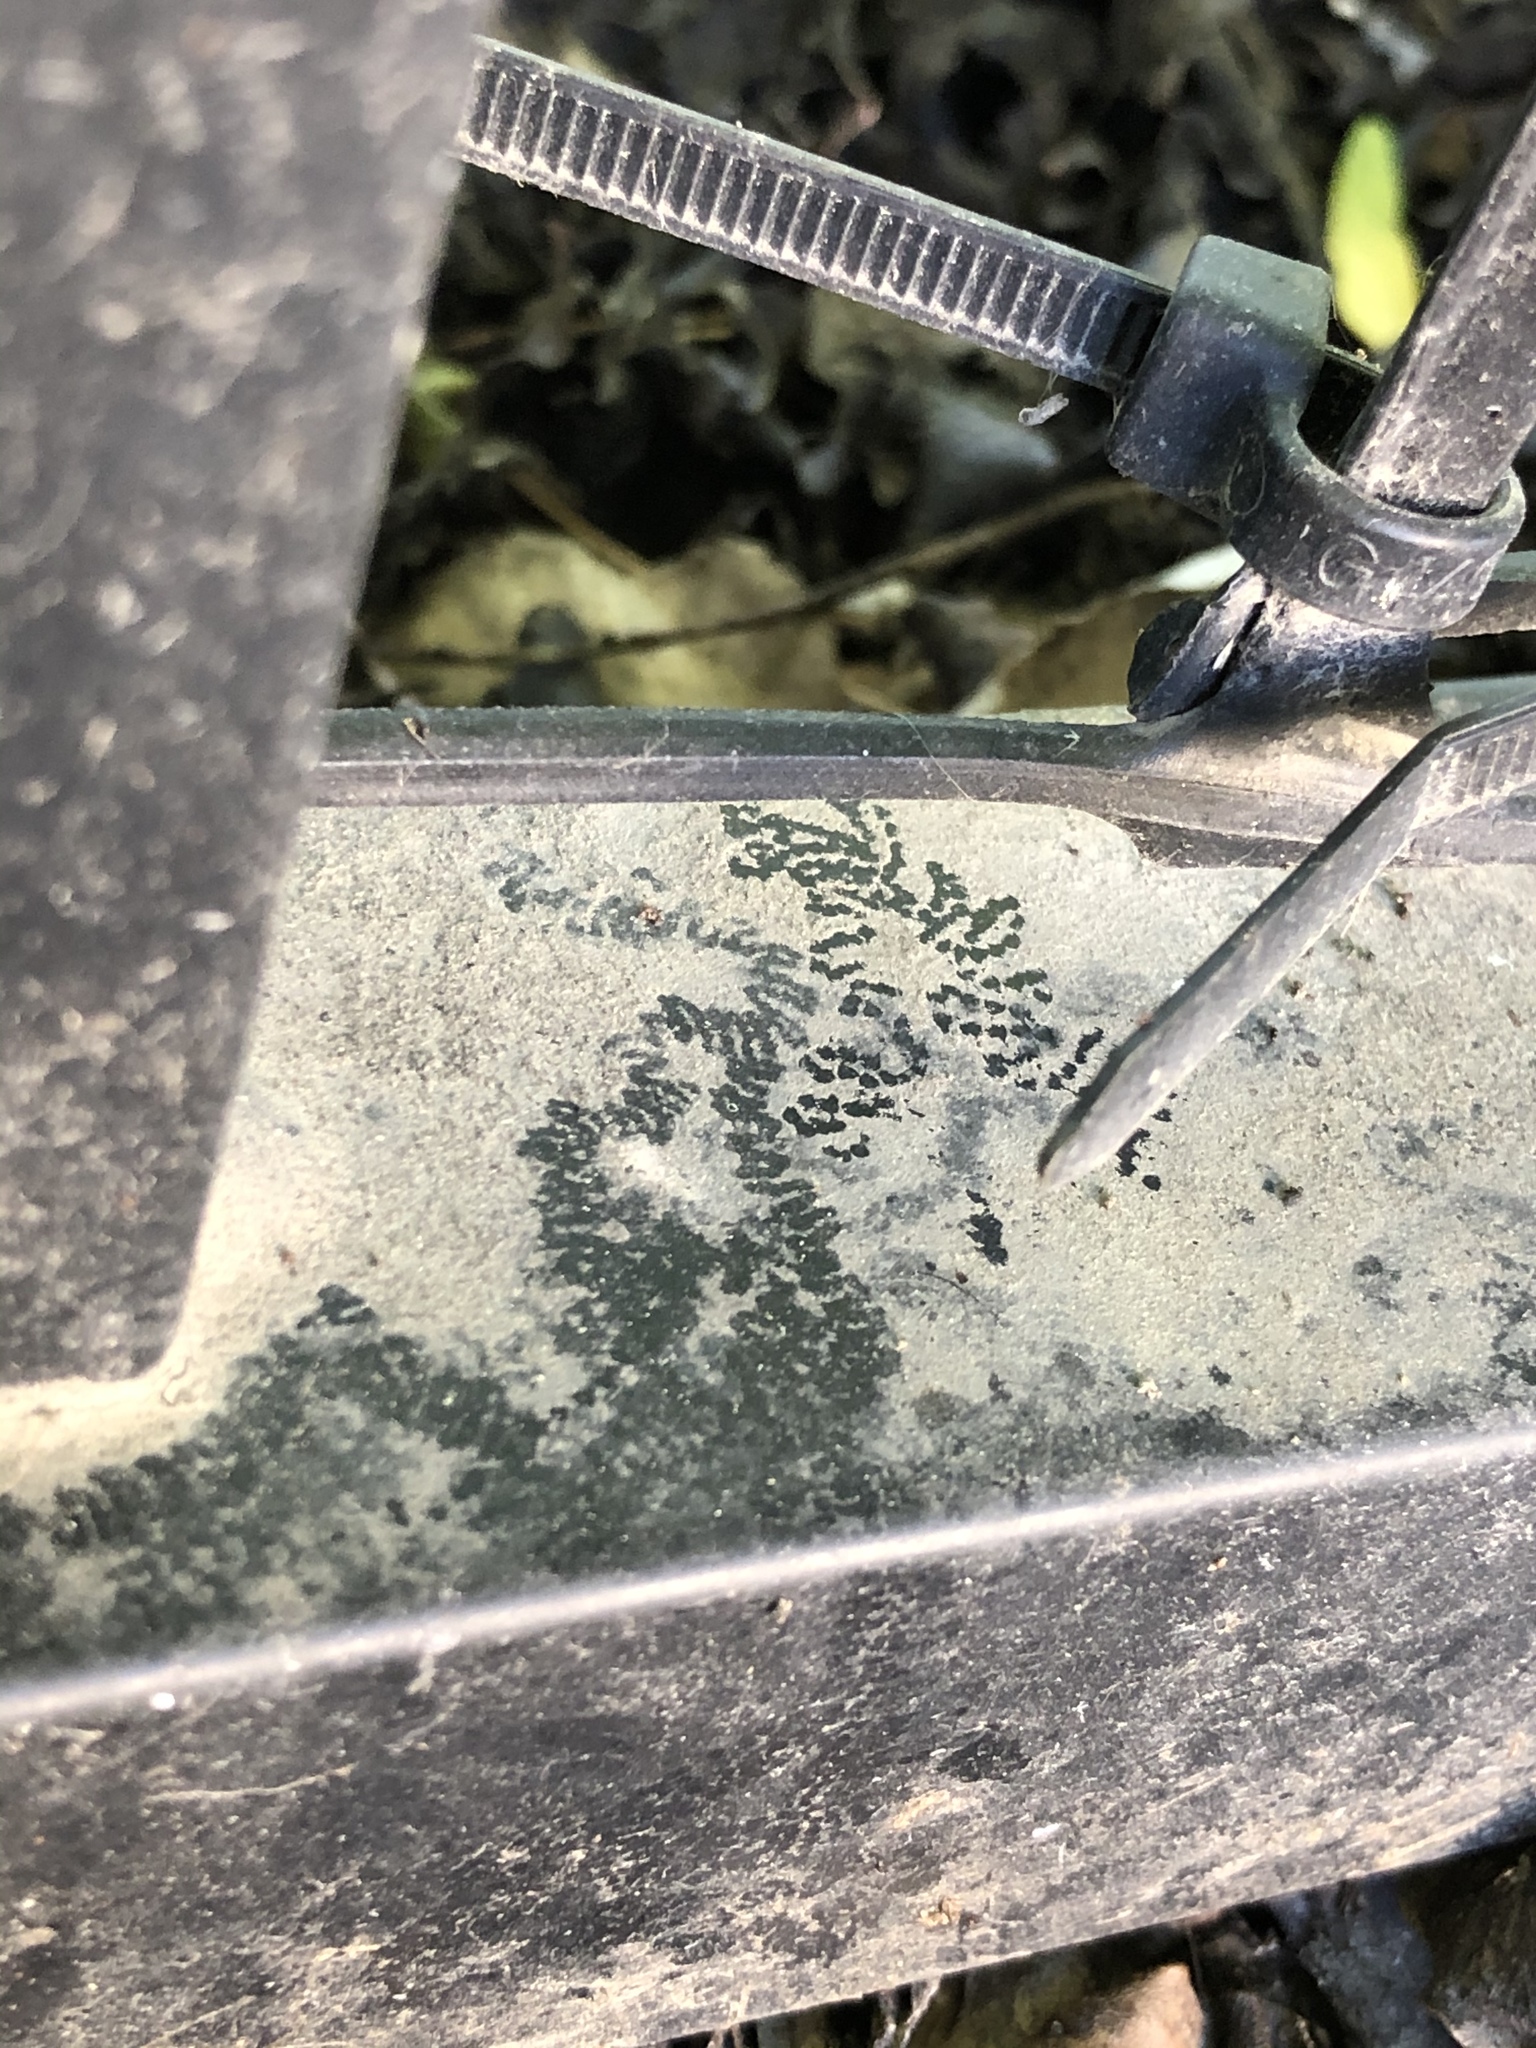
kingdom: Animalia
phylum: Mollusca
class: Gastropoda
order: Stylommatophora
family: Helicidae
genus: Cornu
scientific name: Cornu aspersum
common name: Brown garden snail
